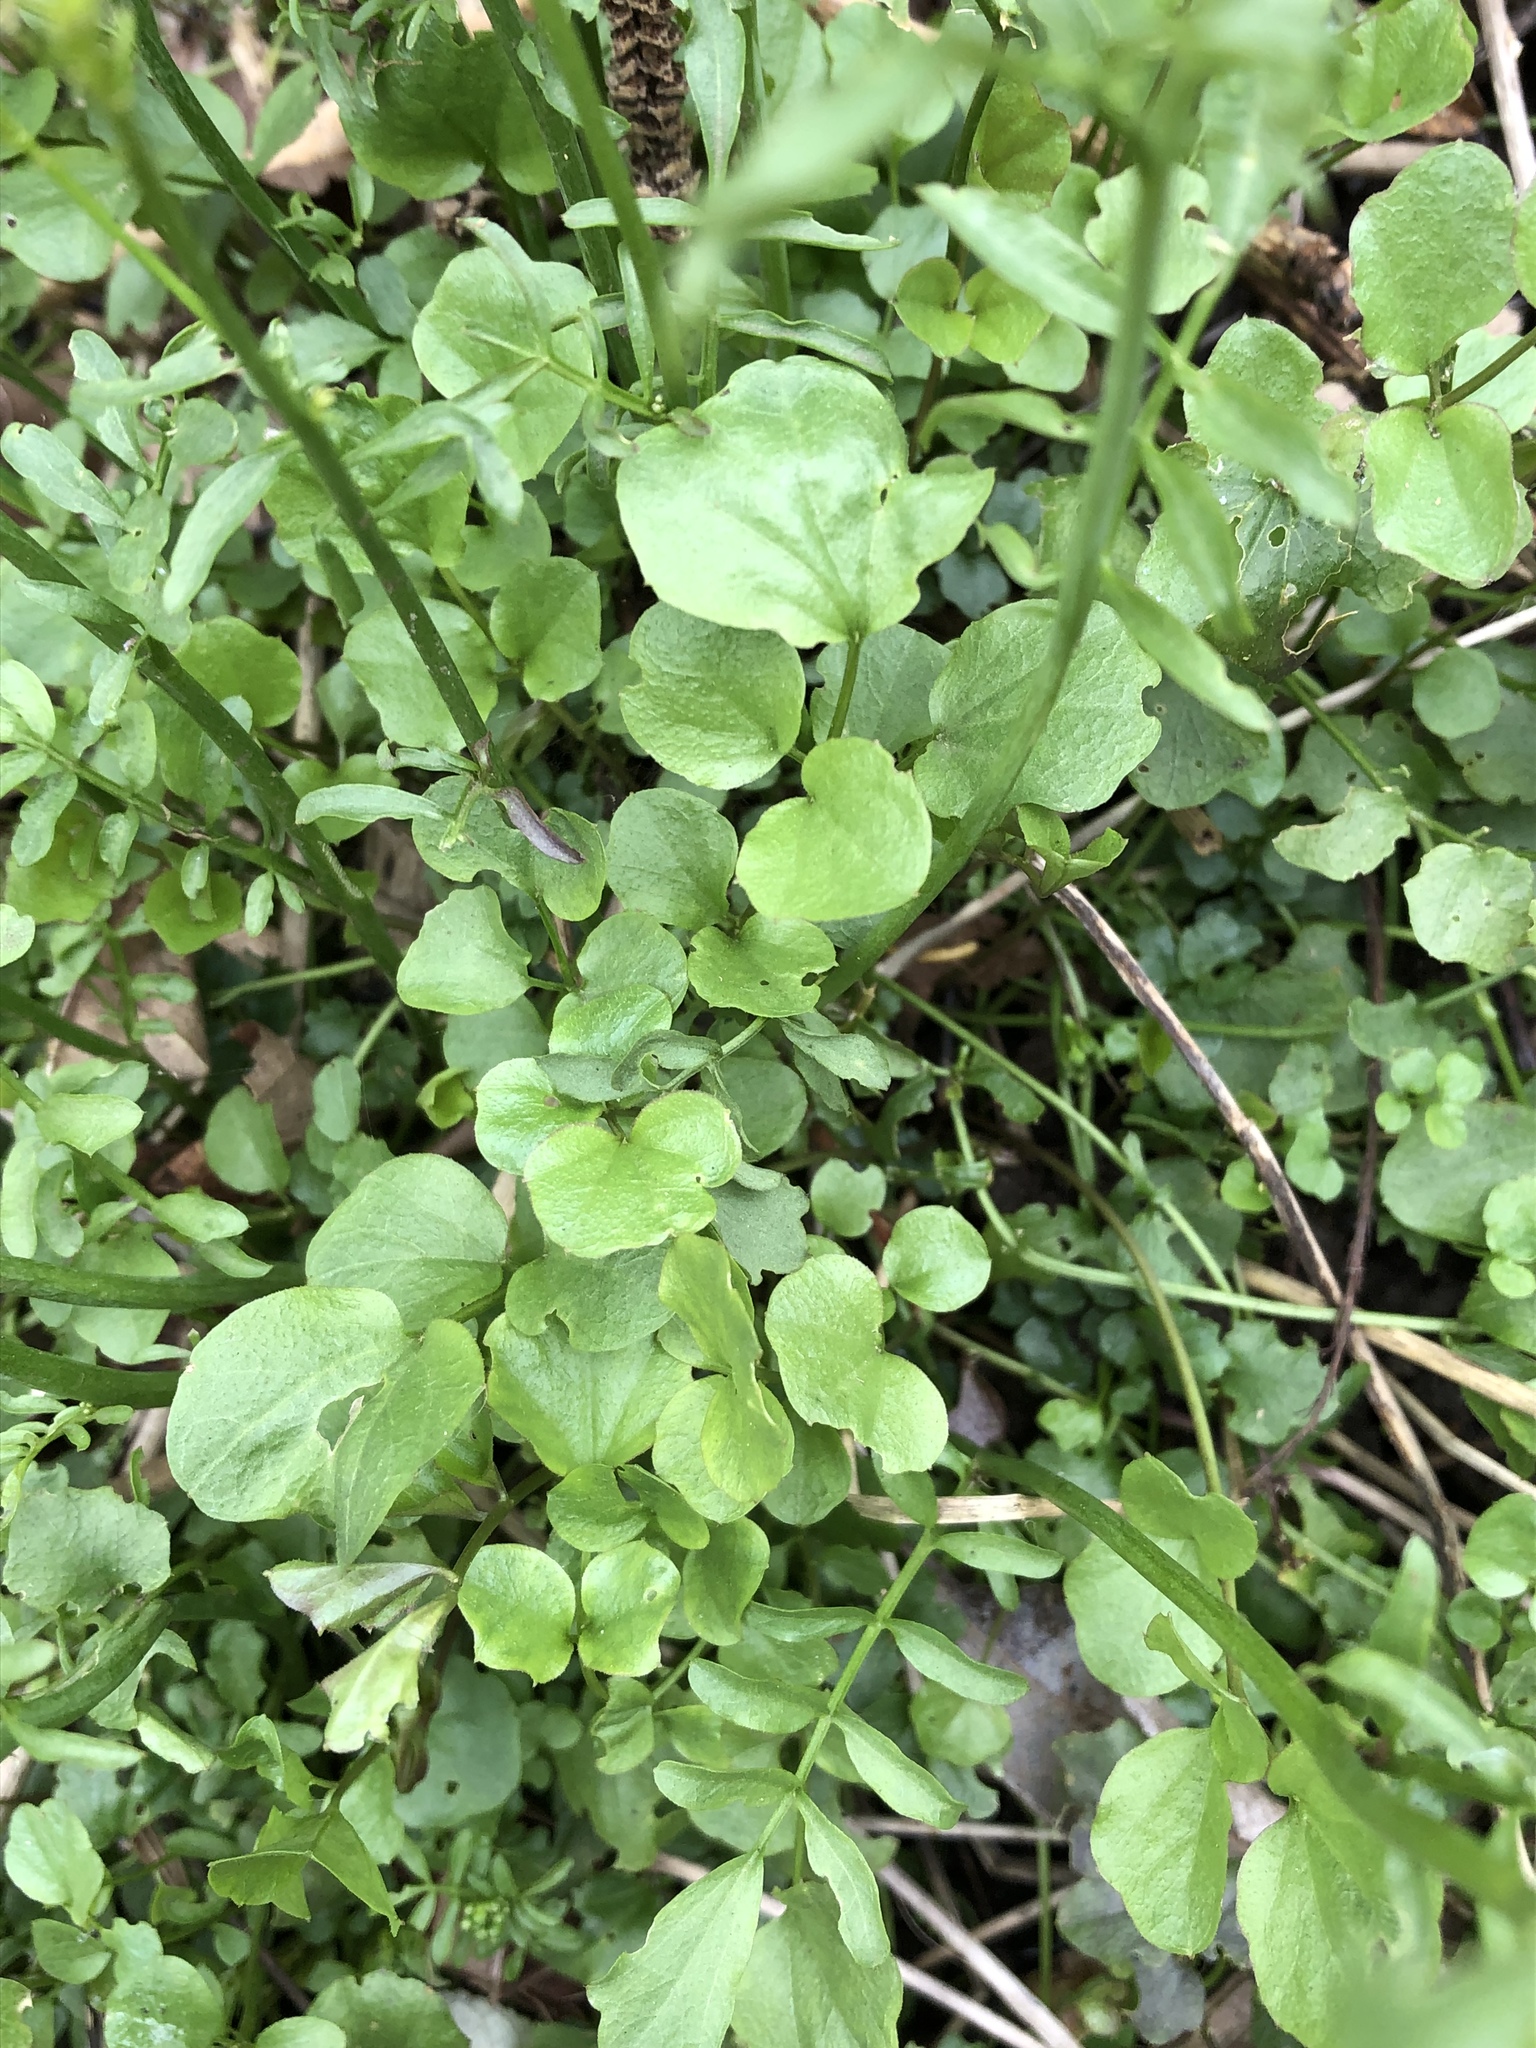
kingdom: Plantae
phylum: Tracheophyta
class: Magnoliopsida
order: Brassicales
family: Brassicaceae
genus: Cardamine
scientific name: Cardamine pratensis
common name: Cuckoo flower
